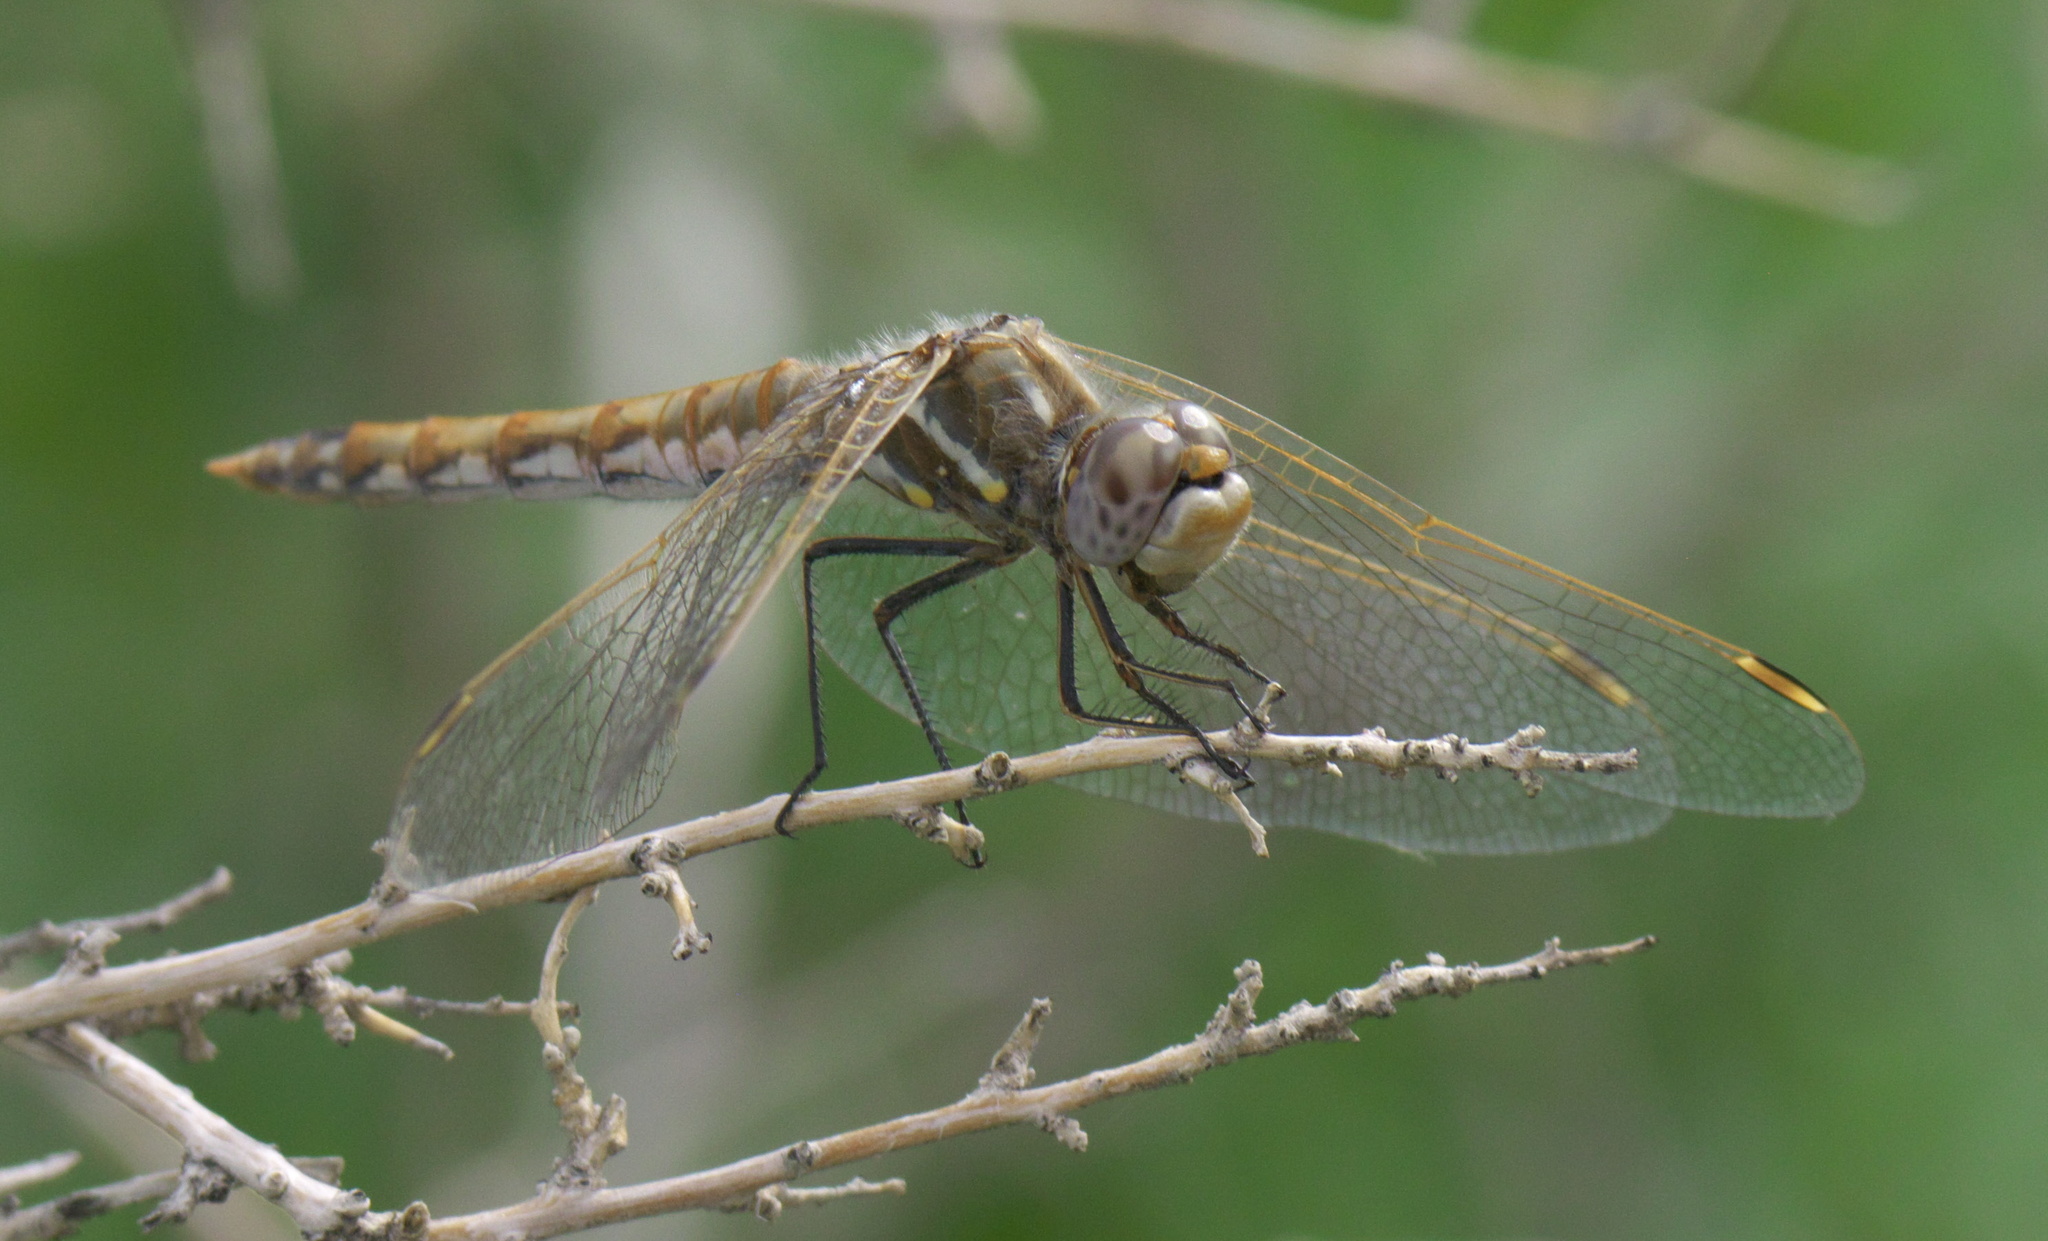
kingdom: Animalia
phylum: Arthropoda
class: Insecta
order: Odonata
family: Libellulidae
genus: Sympetrum
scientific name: Sympetrum corruptum
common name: Variegated meadowhawk
